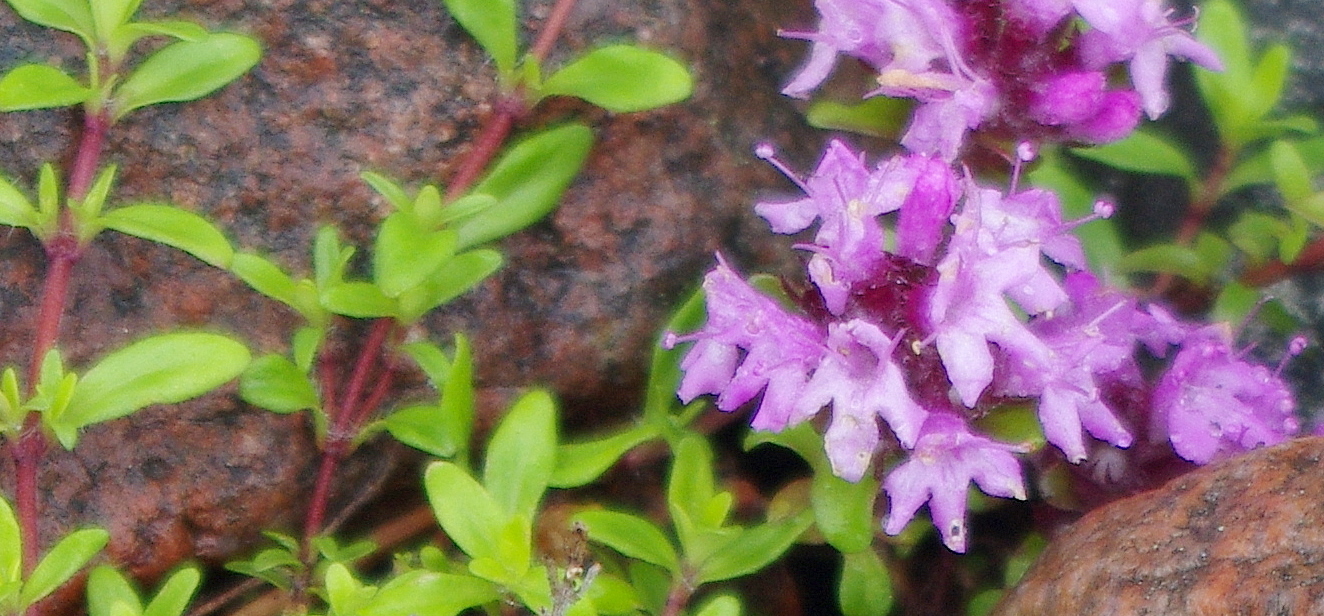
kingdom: Plantae
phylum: Tracheophyta
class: Magnoliopsida
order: Lamiales
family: Lamiaceae
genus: Thymus
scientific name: Thymus serpyllum
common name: Breckland thyme
